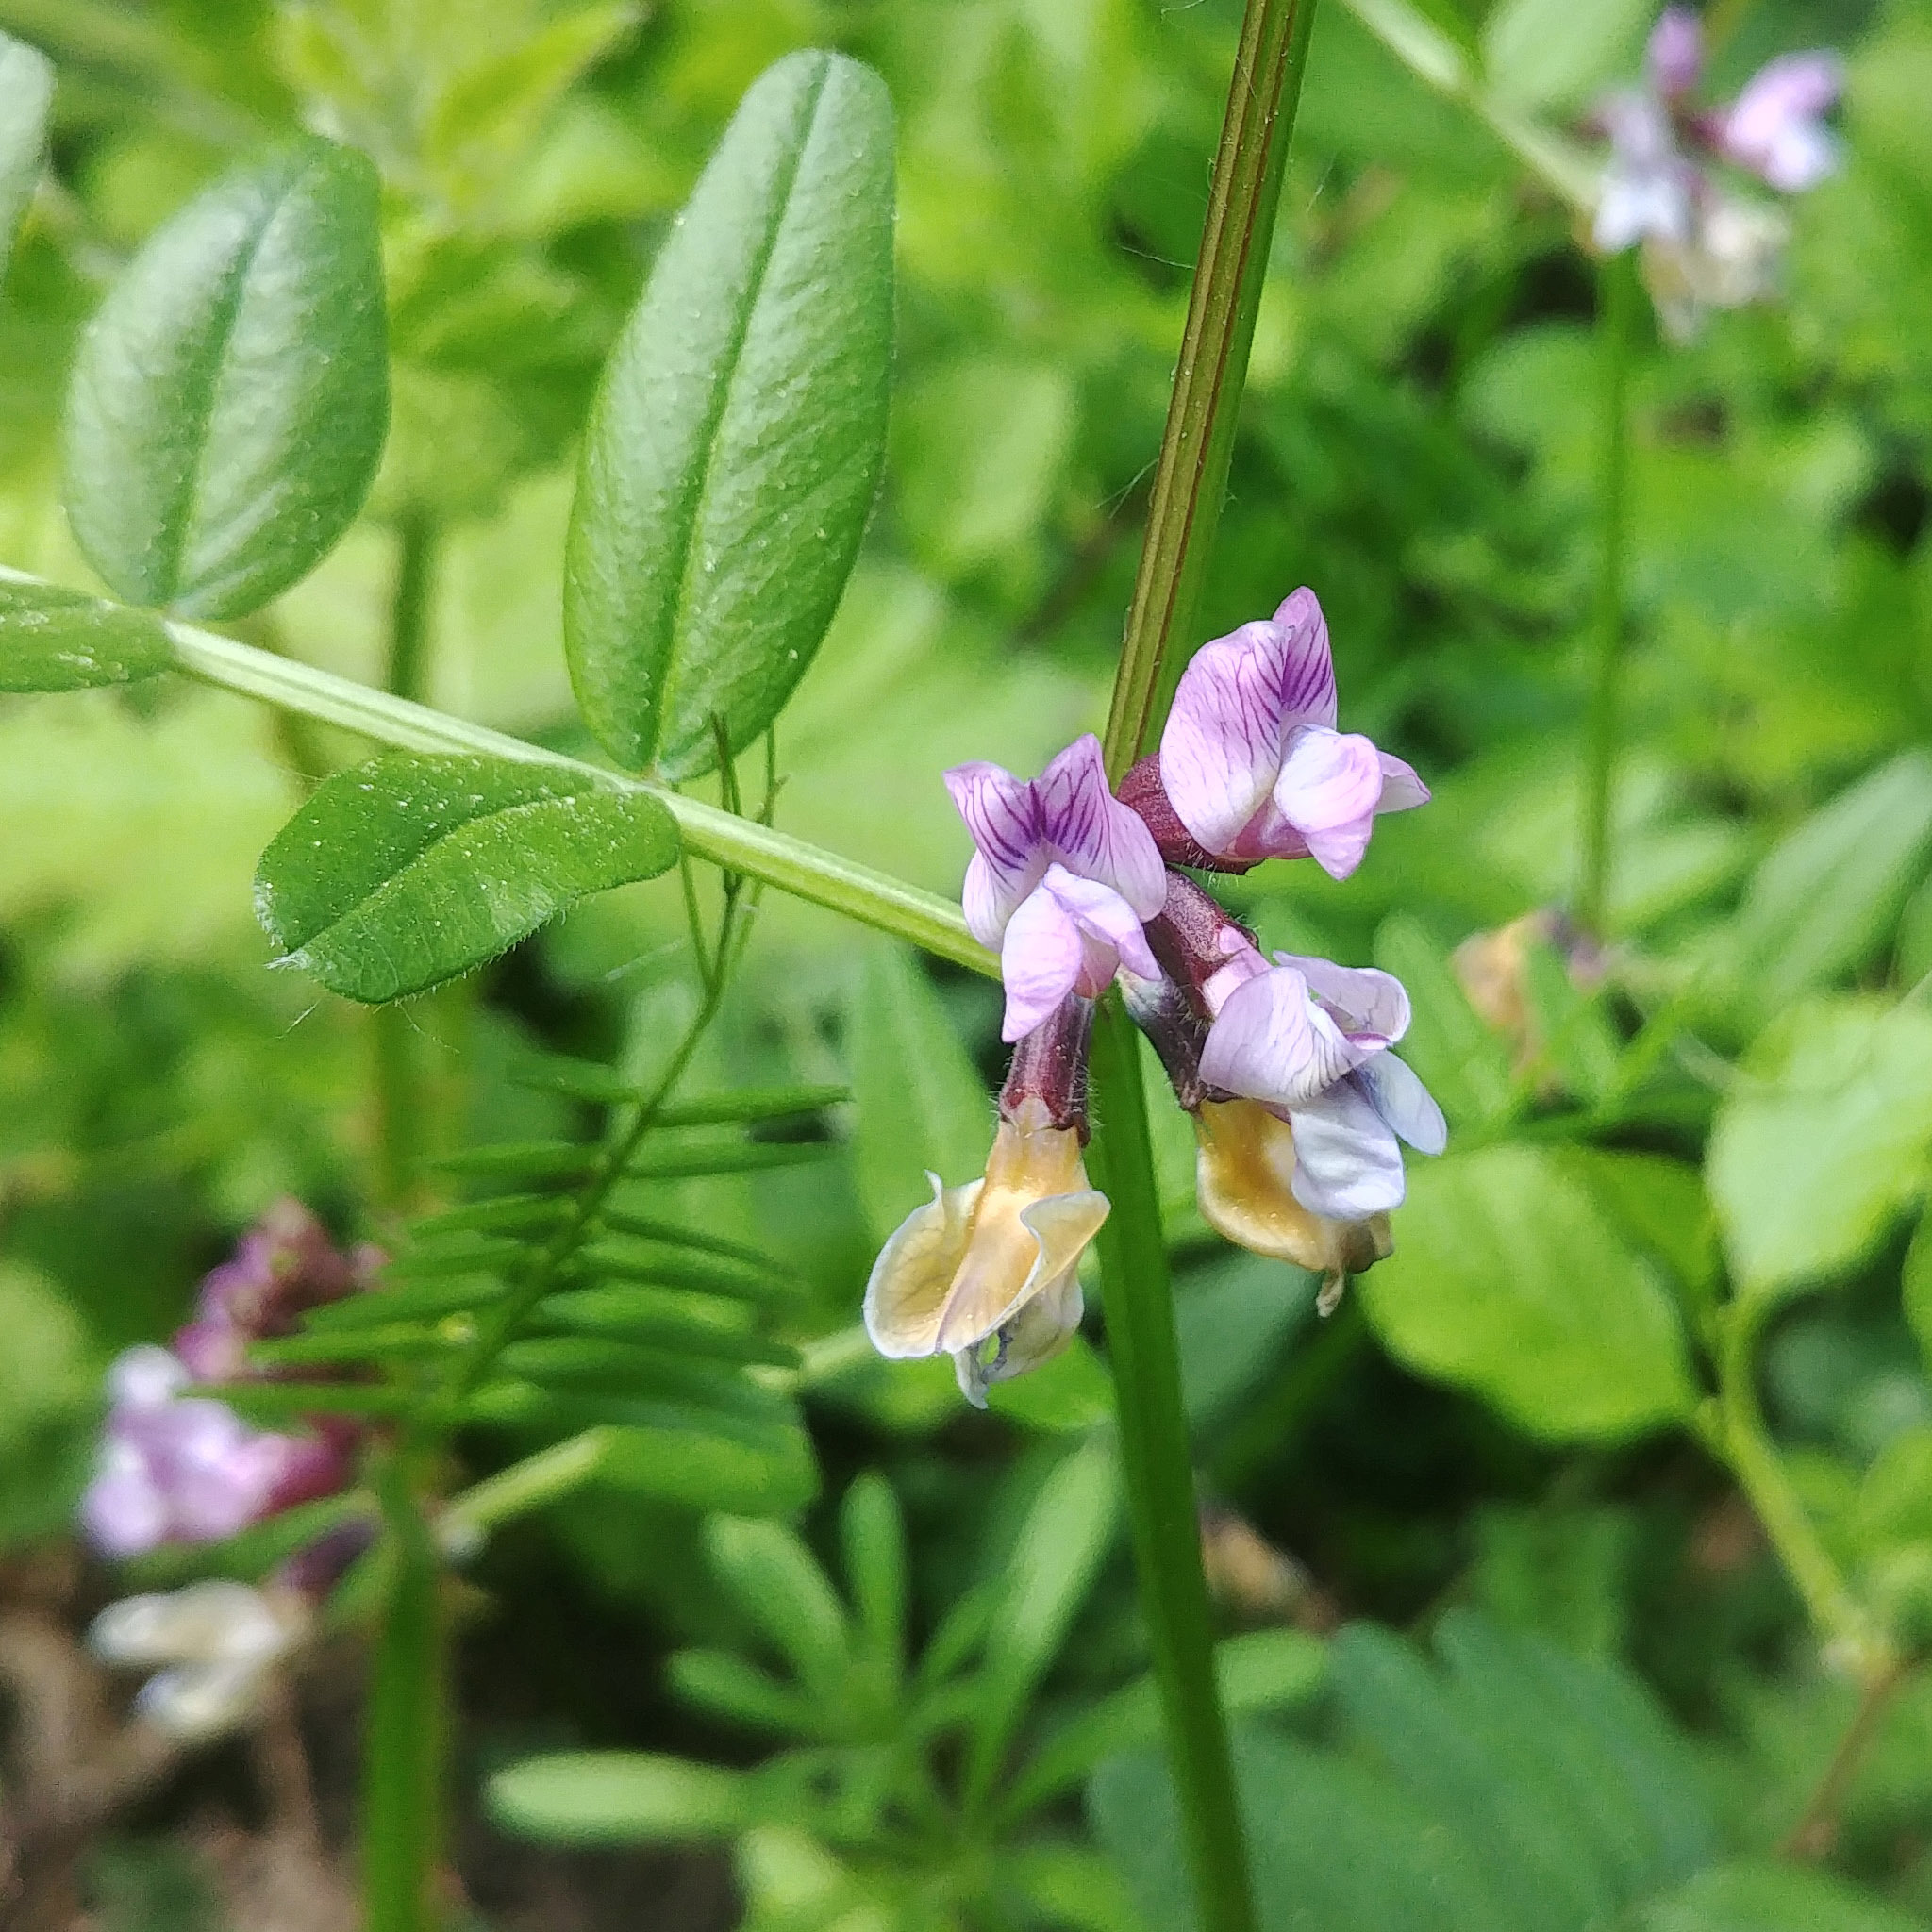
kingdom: Plantae
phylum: Tracheophyta
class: Magnoliopsida
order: Fabales
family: Fabaceae
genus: Vicia
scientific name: Vicia sepium
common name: Bush vetch
